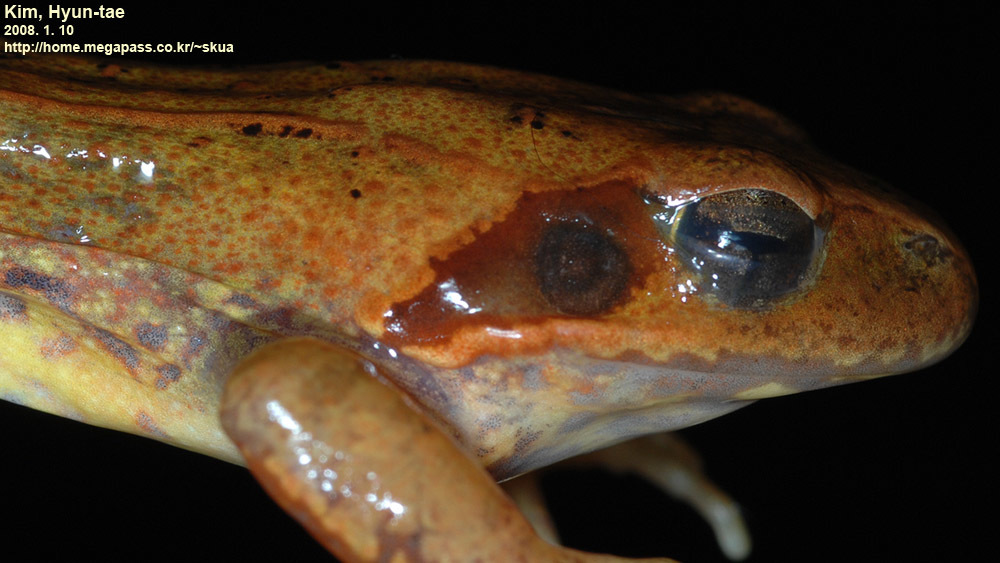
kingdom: Animalia
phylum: Chordata
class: Amphibia
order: Anura
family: Ranidae
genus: Rana
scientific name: Rana uenoi
